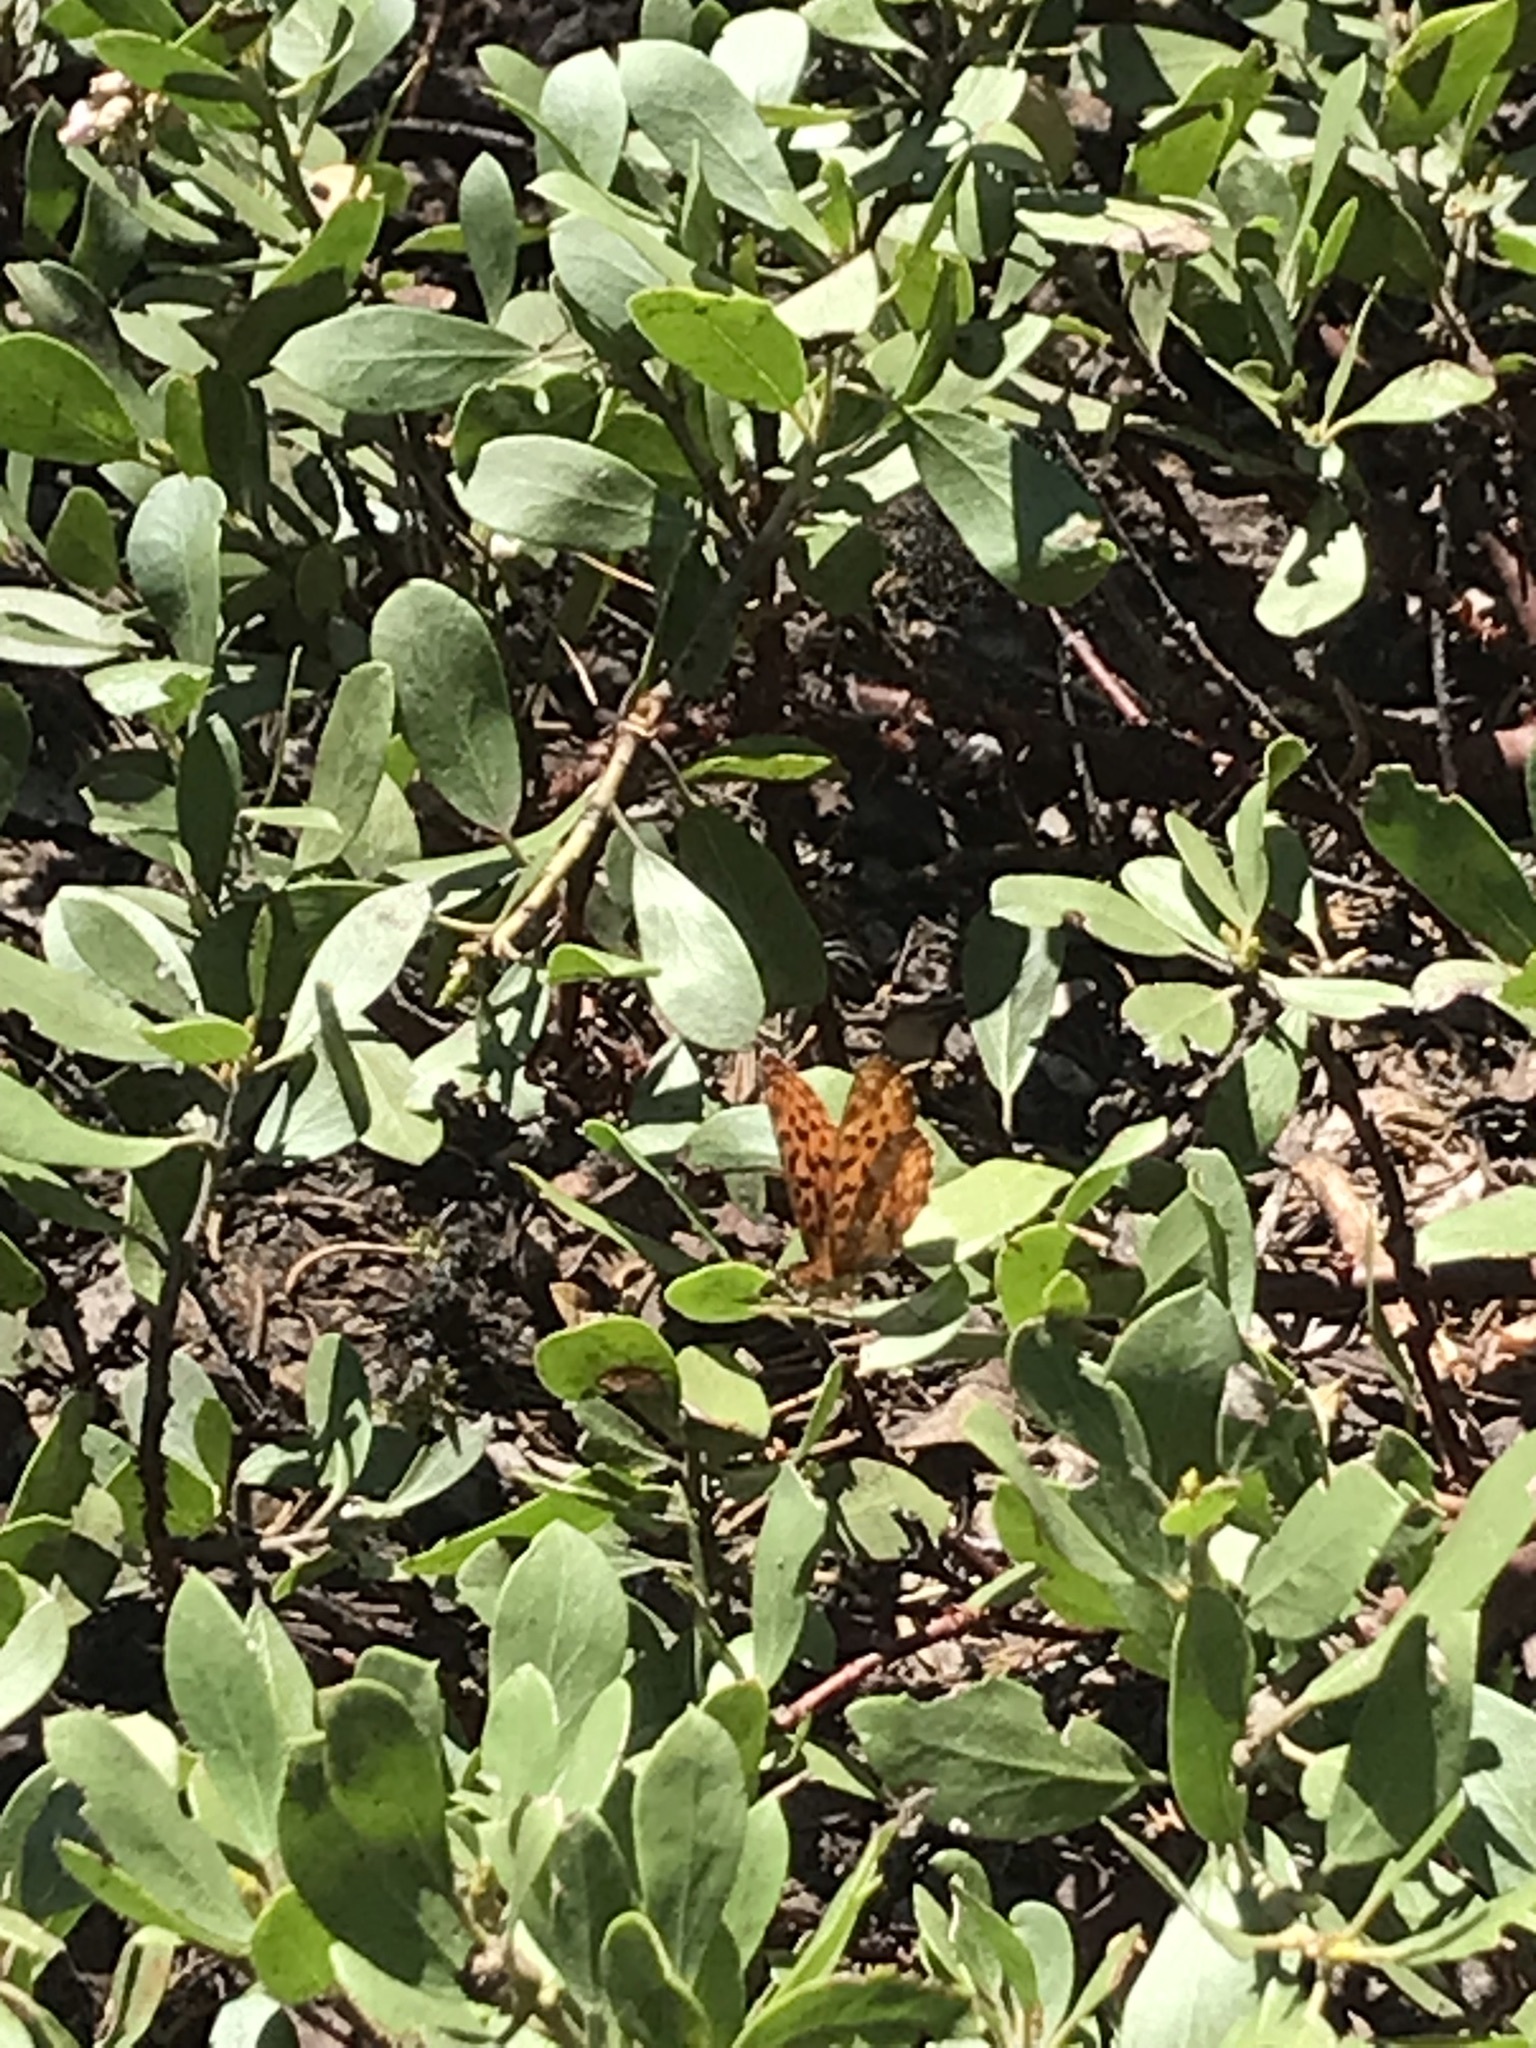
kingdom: Animalia
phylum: Arthropoda
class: Insecta
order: Lepidoptera
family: Nymphalidae
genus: Boloria
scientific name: Boloria epithore
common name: Pacific fritillary
